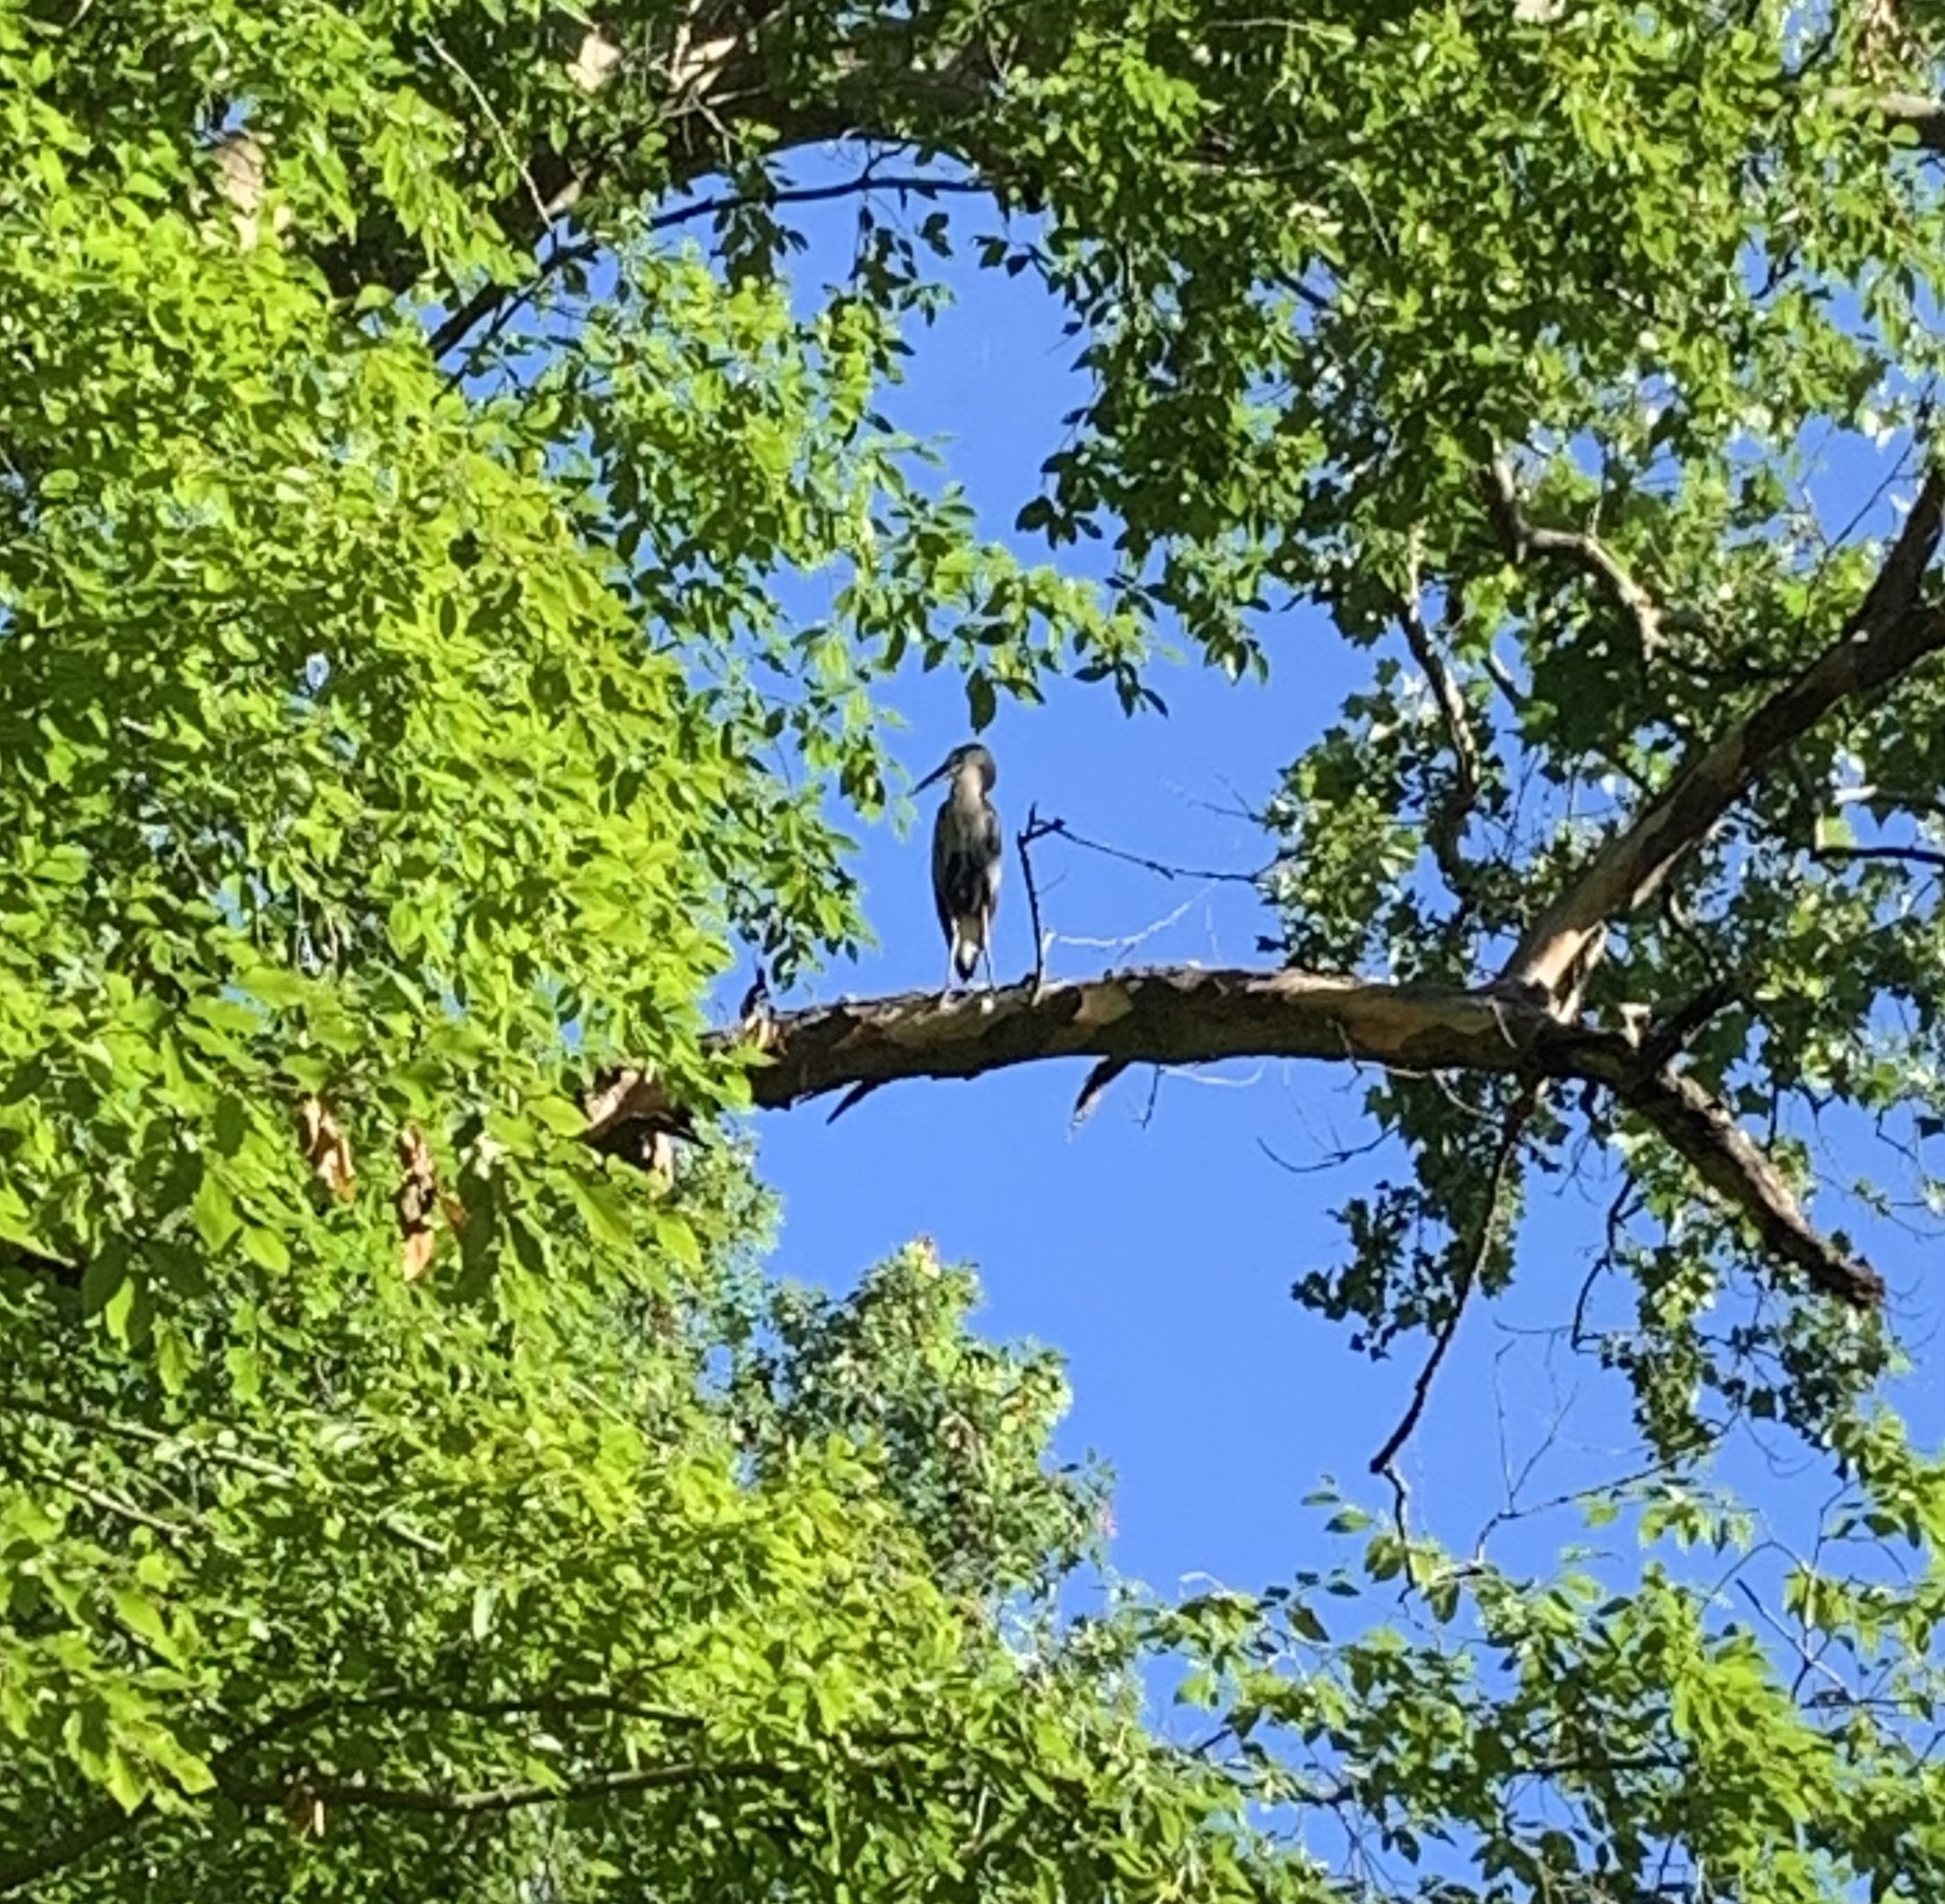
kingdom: Animalia
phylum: Chordata
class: Aves
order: Pelecaniformes
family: Ardeidae
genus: Ardea
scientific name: Ardea herodias
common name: Great blue heron
